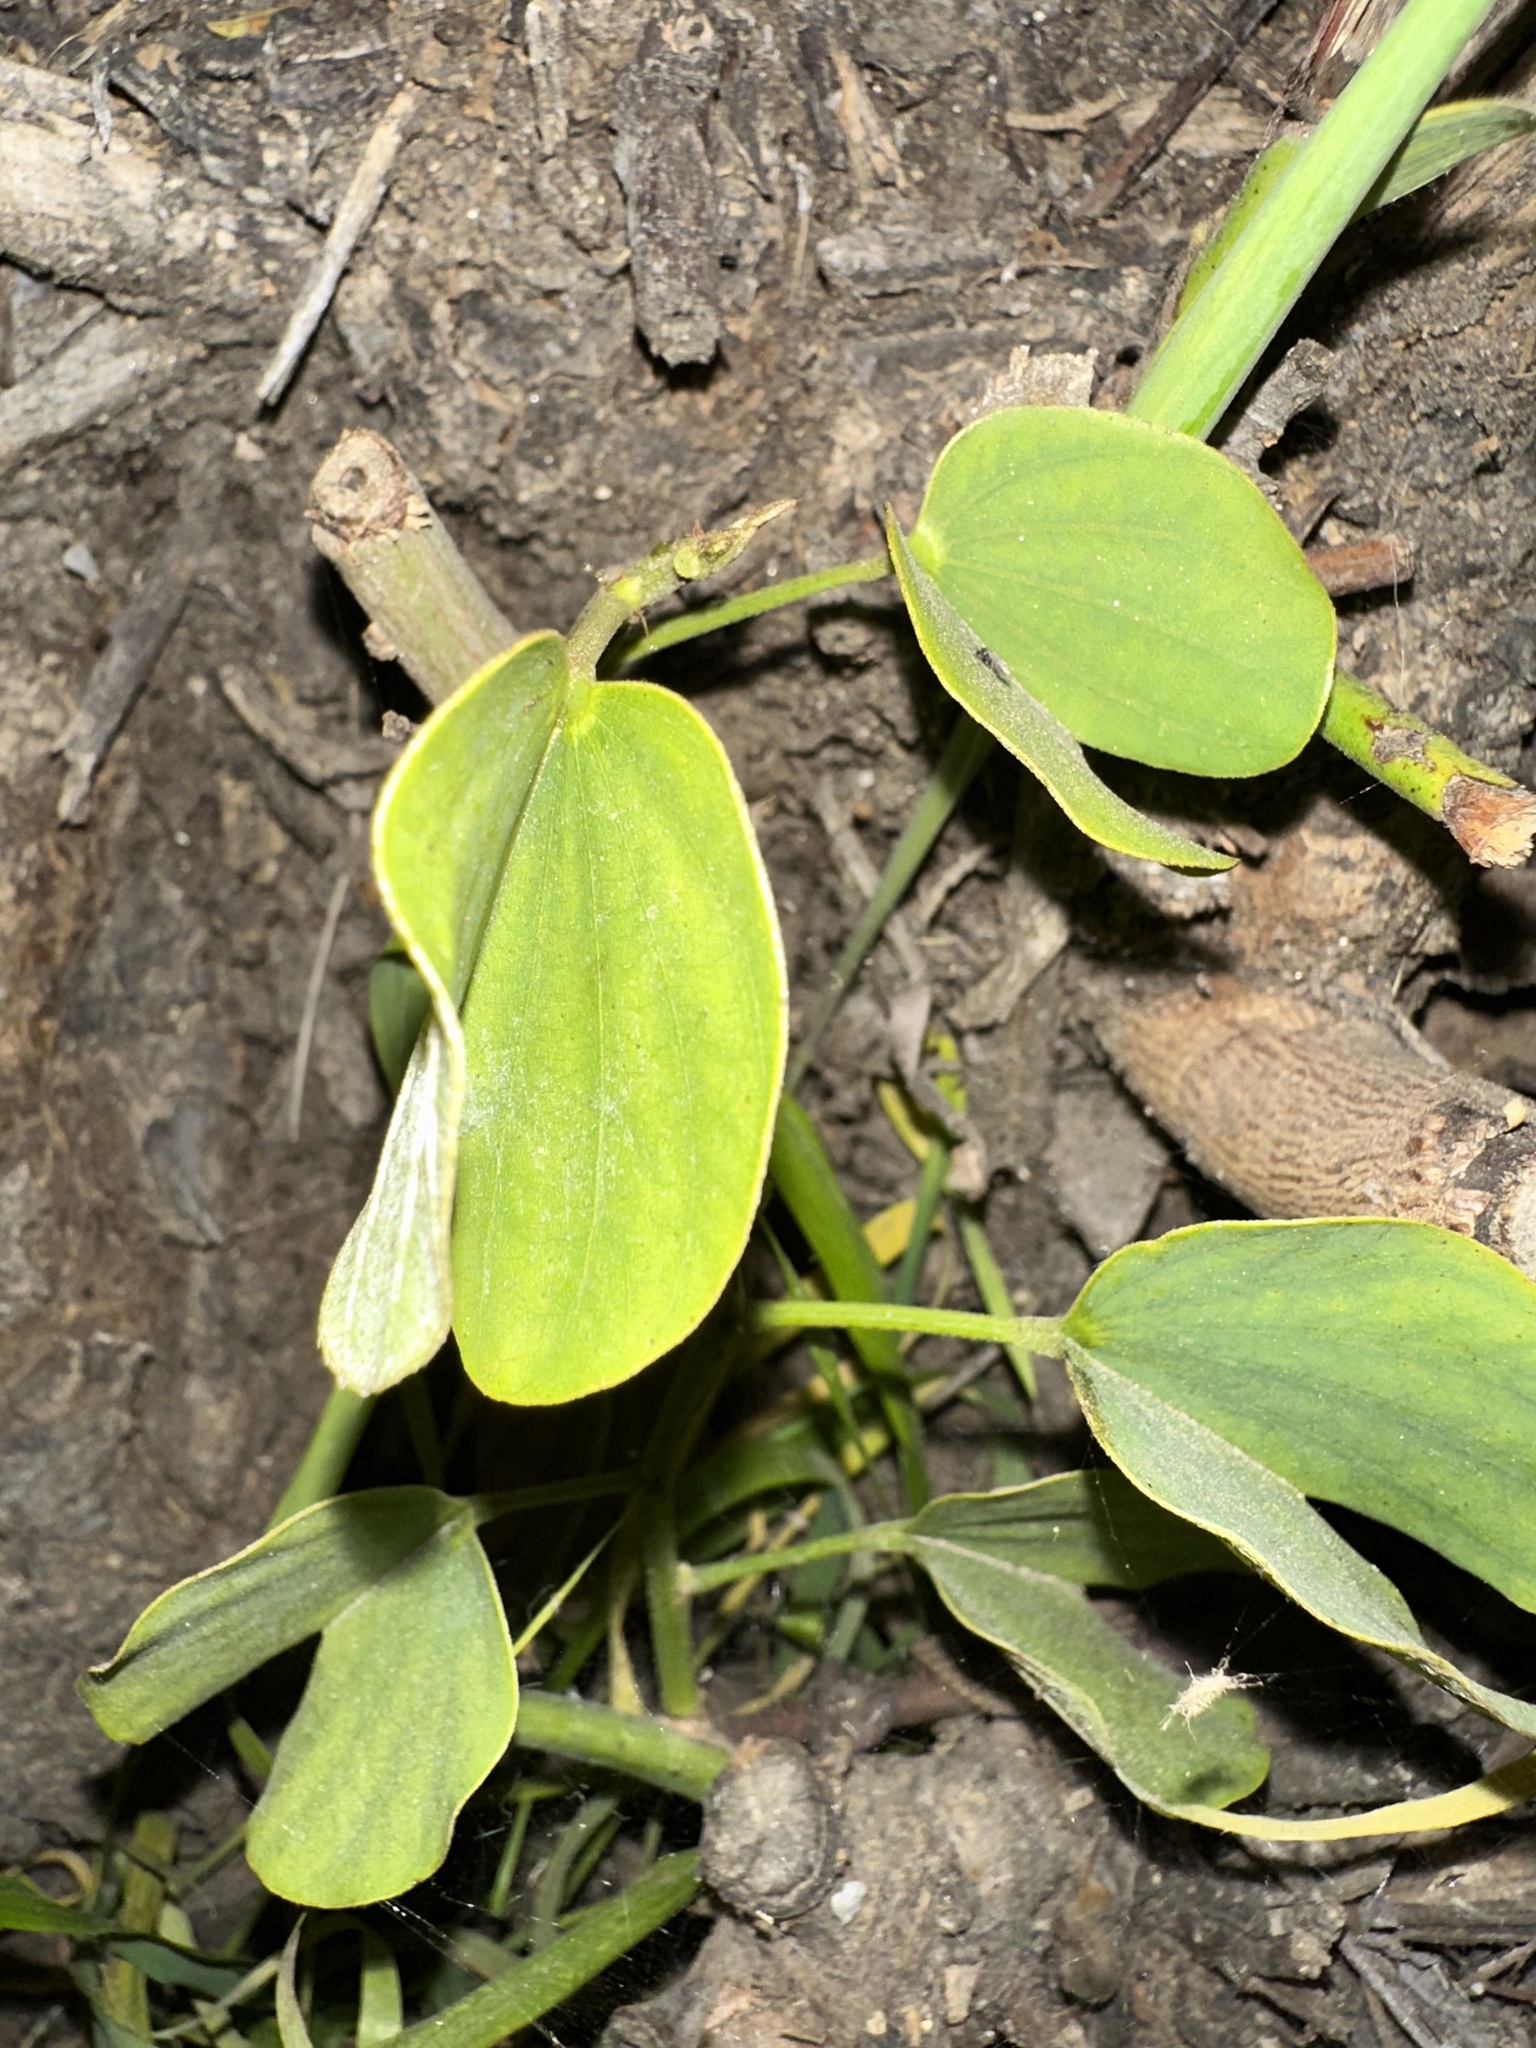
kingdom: Plantae
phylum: Tracheophyta
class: Magnoliopsida
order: Caryophyllales
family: Amaranthaceae
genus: Chenopodiastrum
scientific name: Chenopodiastrum murale
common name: Sowbane
